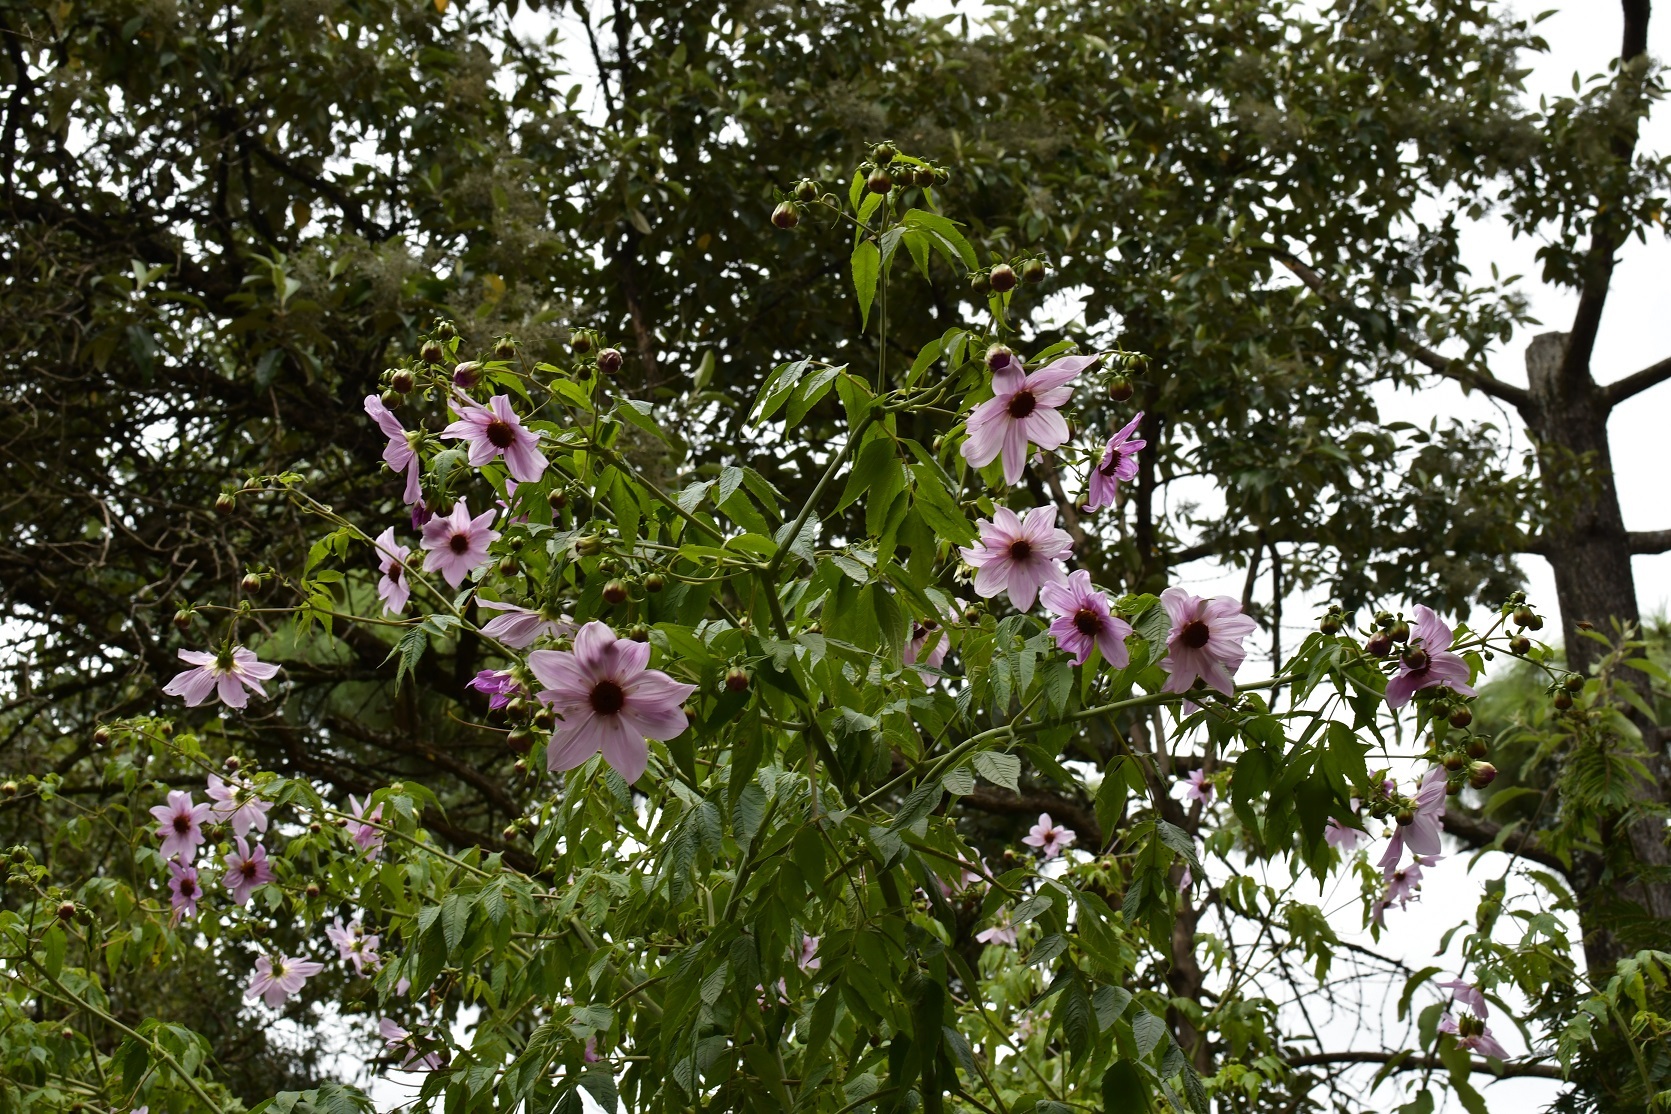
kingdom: Plantae
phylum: Tracheophyta
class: Magnoliopsida
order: Asterales
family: Asteraceae
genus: Dahlia
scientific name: Dahlia imperialis
